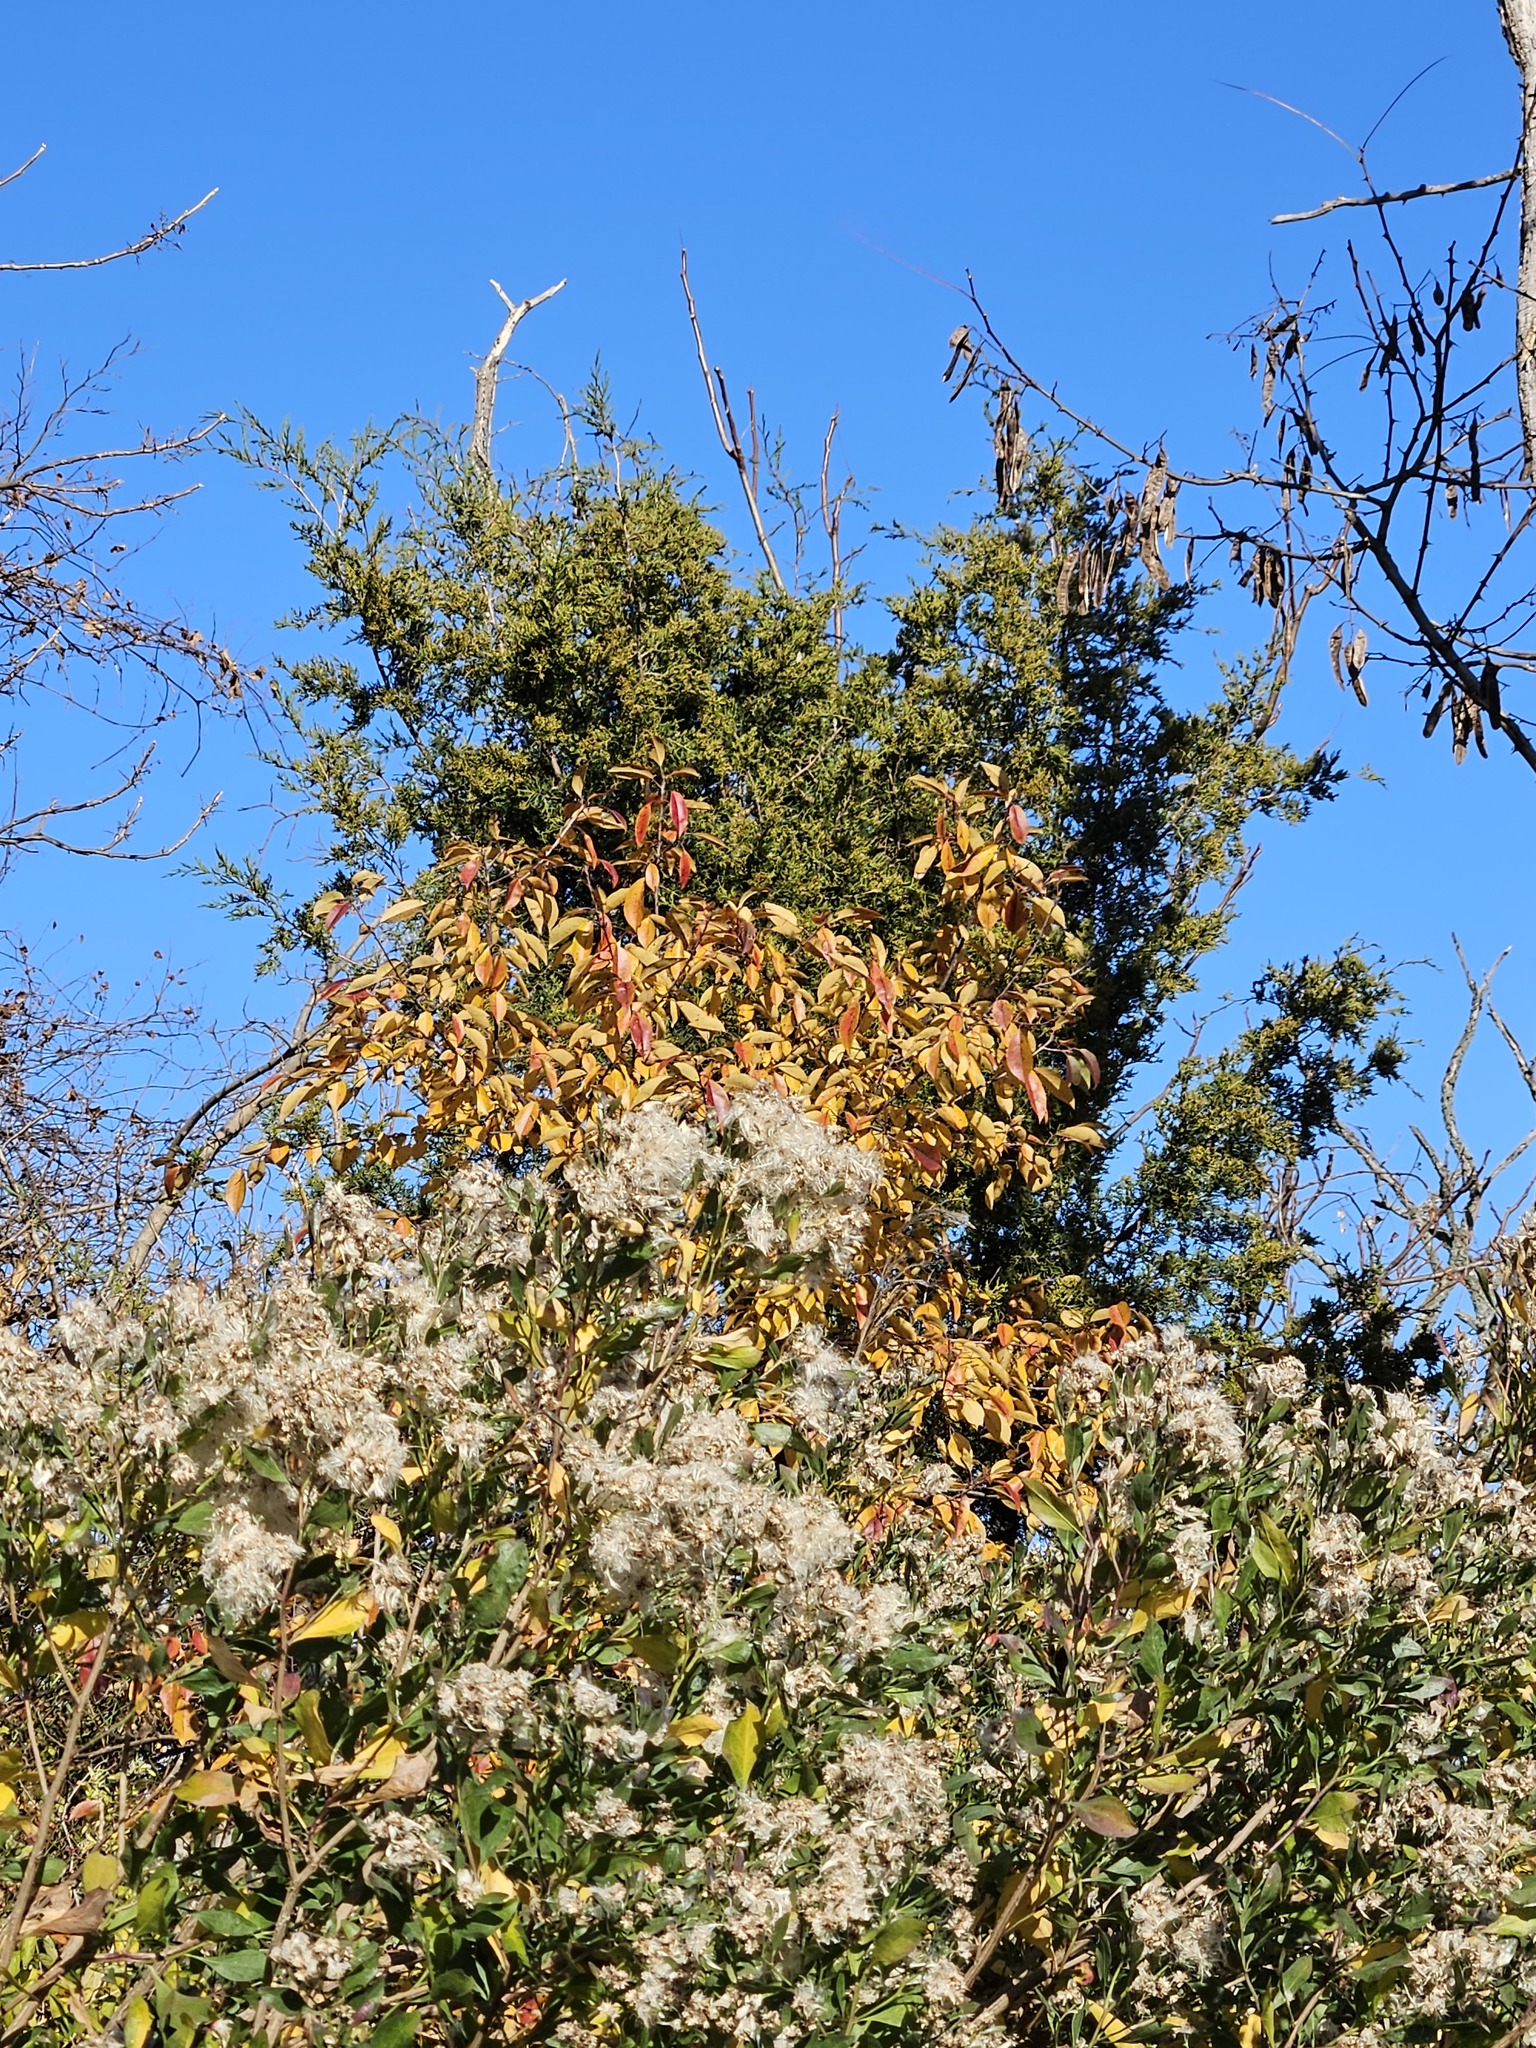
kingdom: Plantae
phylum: Tracheophyta
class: Magnoliopsida
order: Rosales
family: Rosaceae
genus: Prunus
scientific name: Prunus serotina
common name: Black cherry
